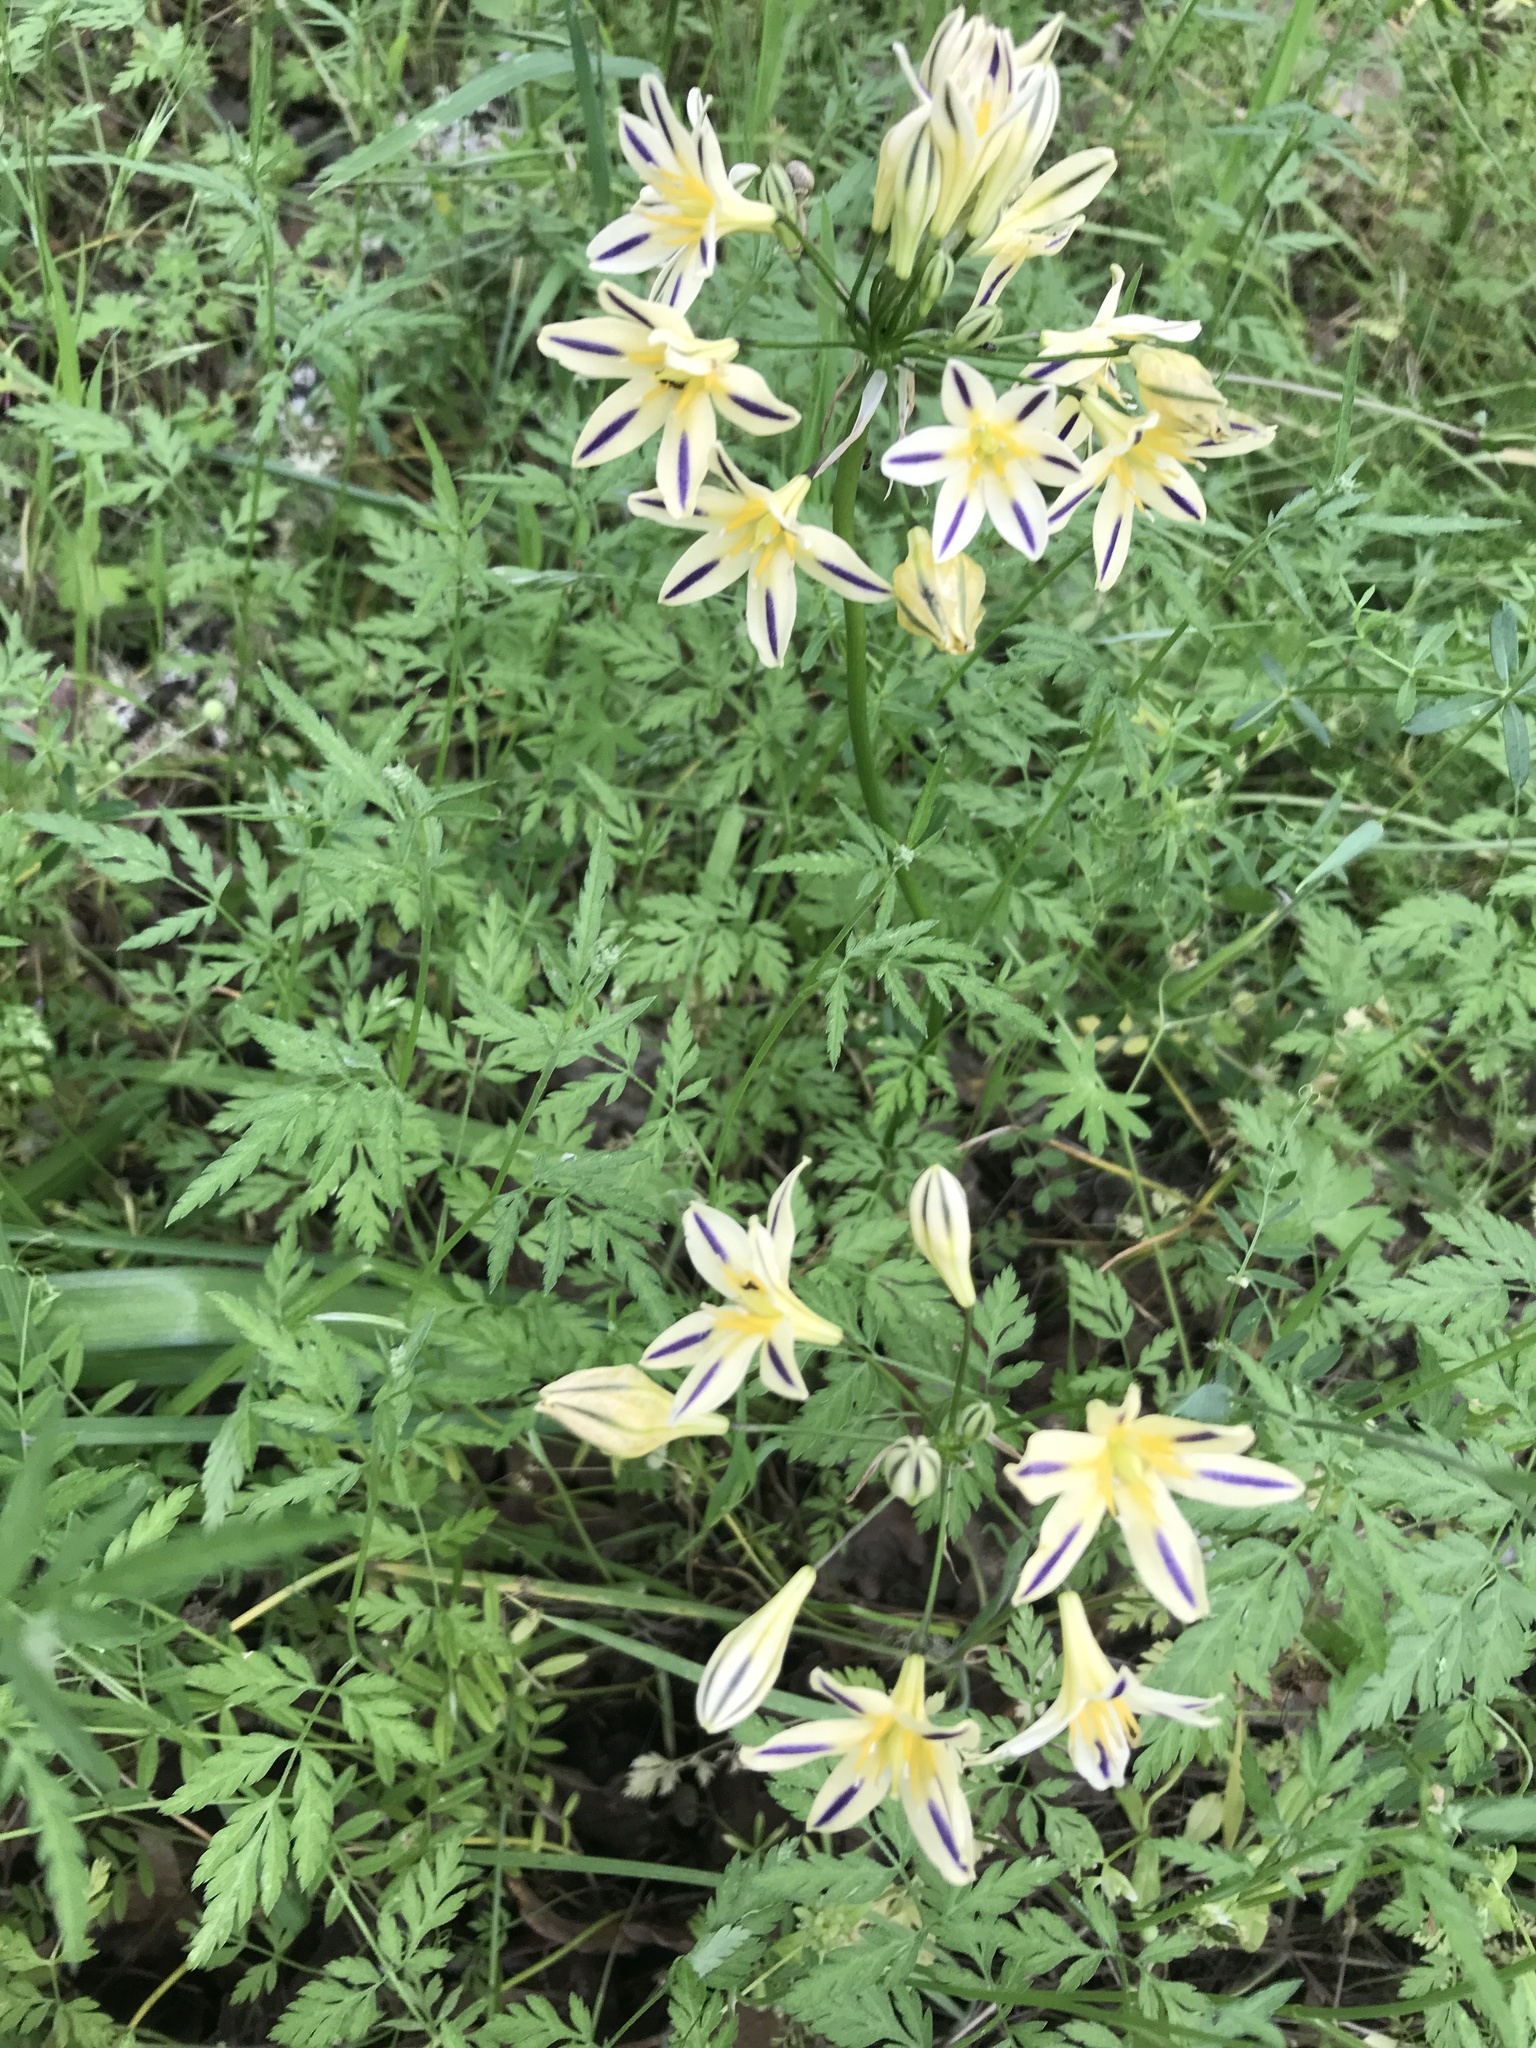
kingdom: Plantae
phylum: Tracheophyta
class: Liliopsida
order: Asparagales
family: Asparagaceae
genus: Triteleia
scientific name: Triteleia hendersonii
